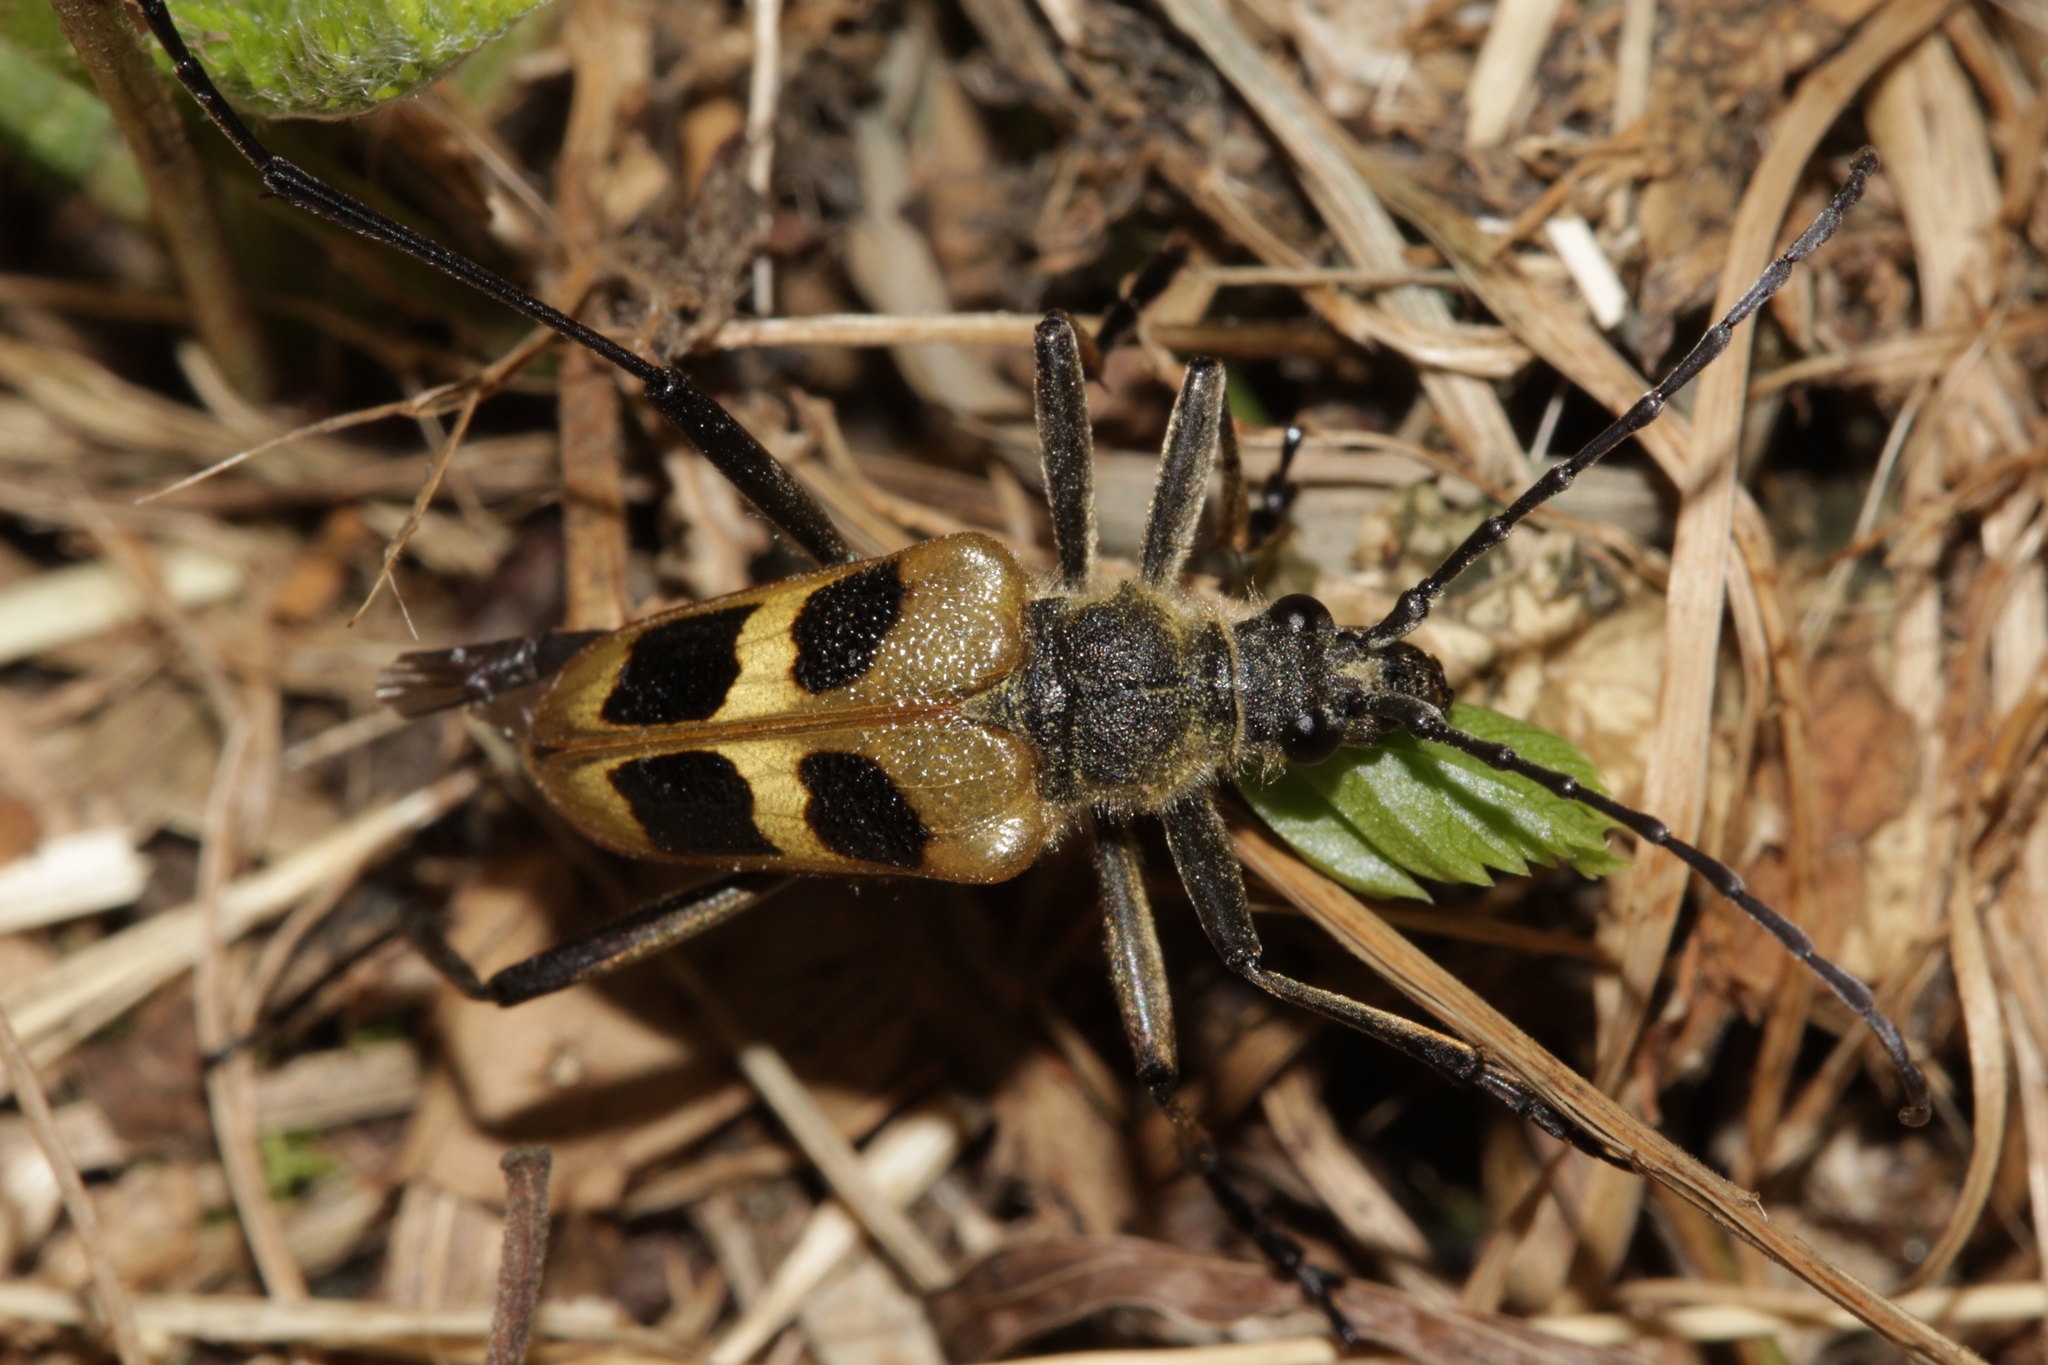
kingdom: Animalia
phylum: Arthropoda
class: Insecta
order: Coleoptera
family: Cerambycidae
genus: Pachyta
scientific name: Pachyta quadrimaculata
